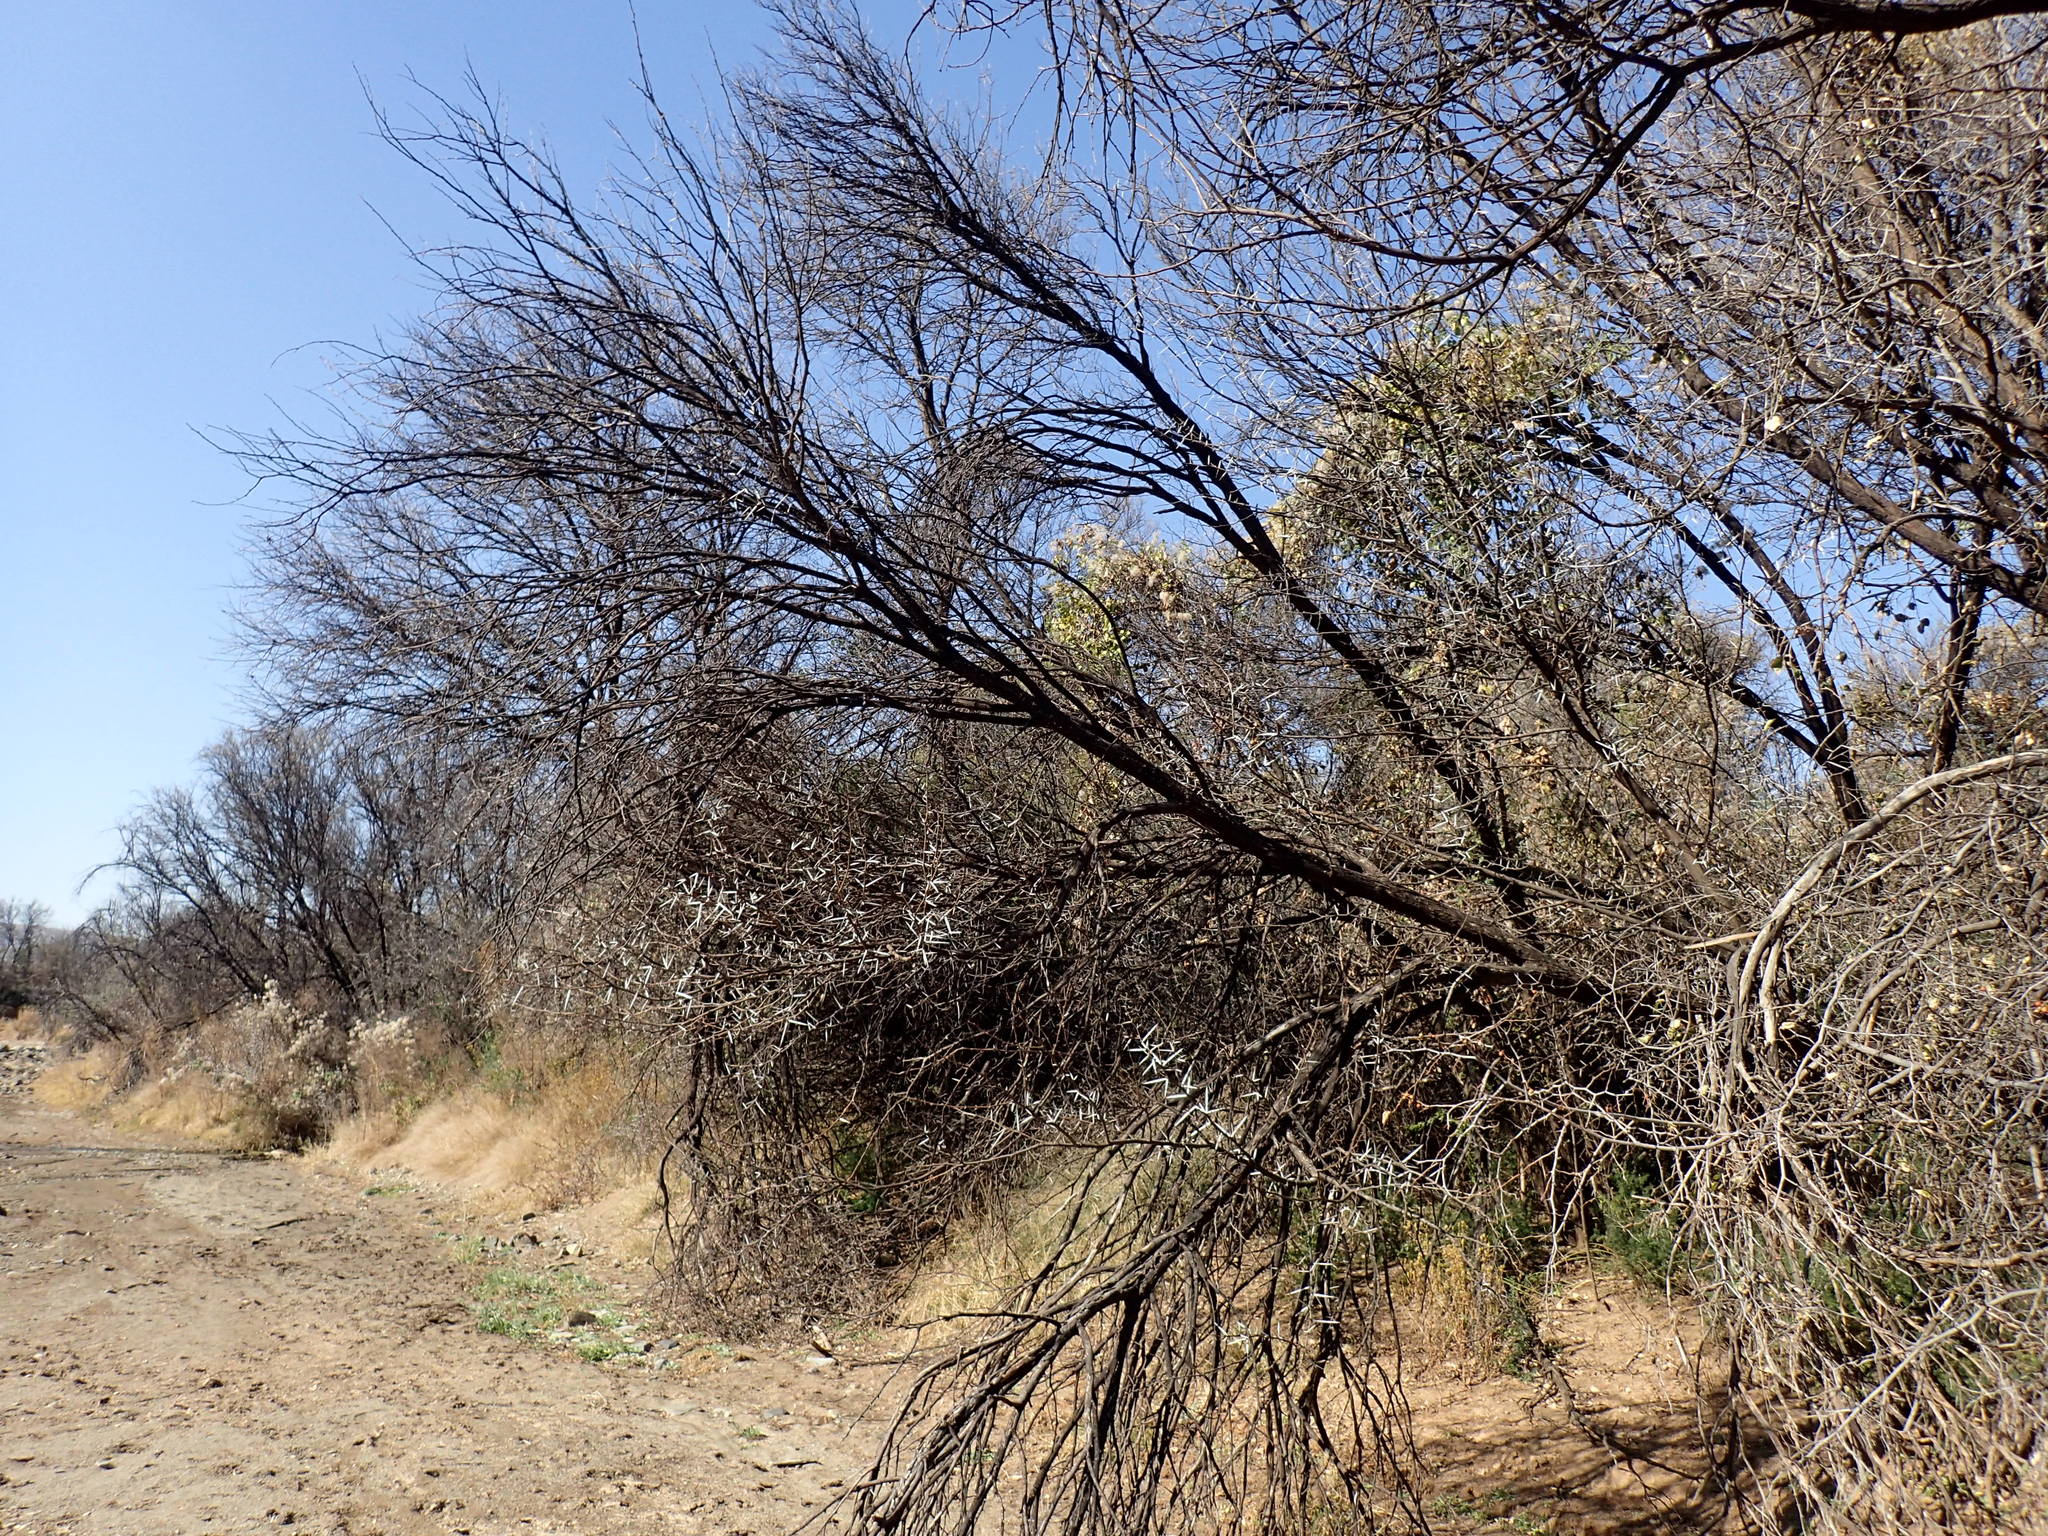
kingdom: Plantae
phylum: Tracheophyta
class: Magnoliopsida
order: Fabales
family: Fabaceae
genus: Vachellia
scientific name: Vachellia karroo
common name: Sweet thorn
